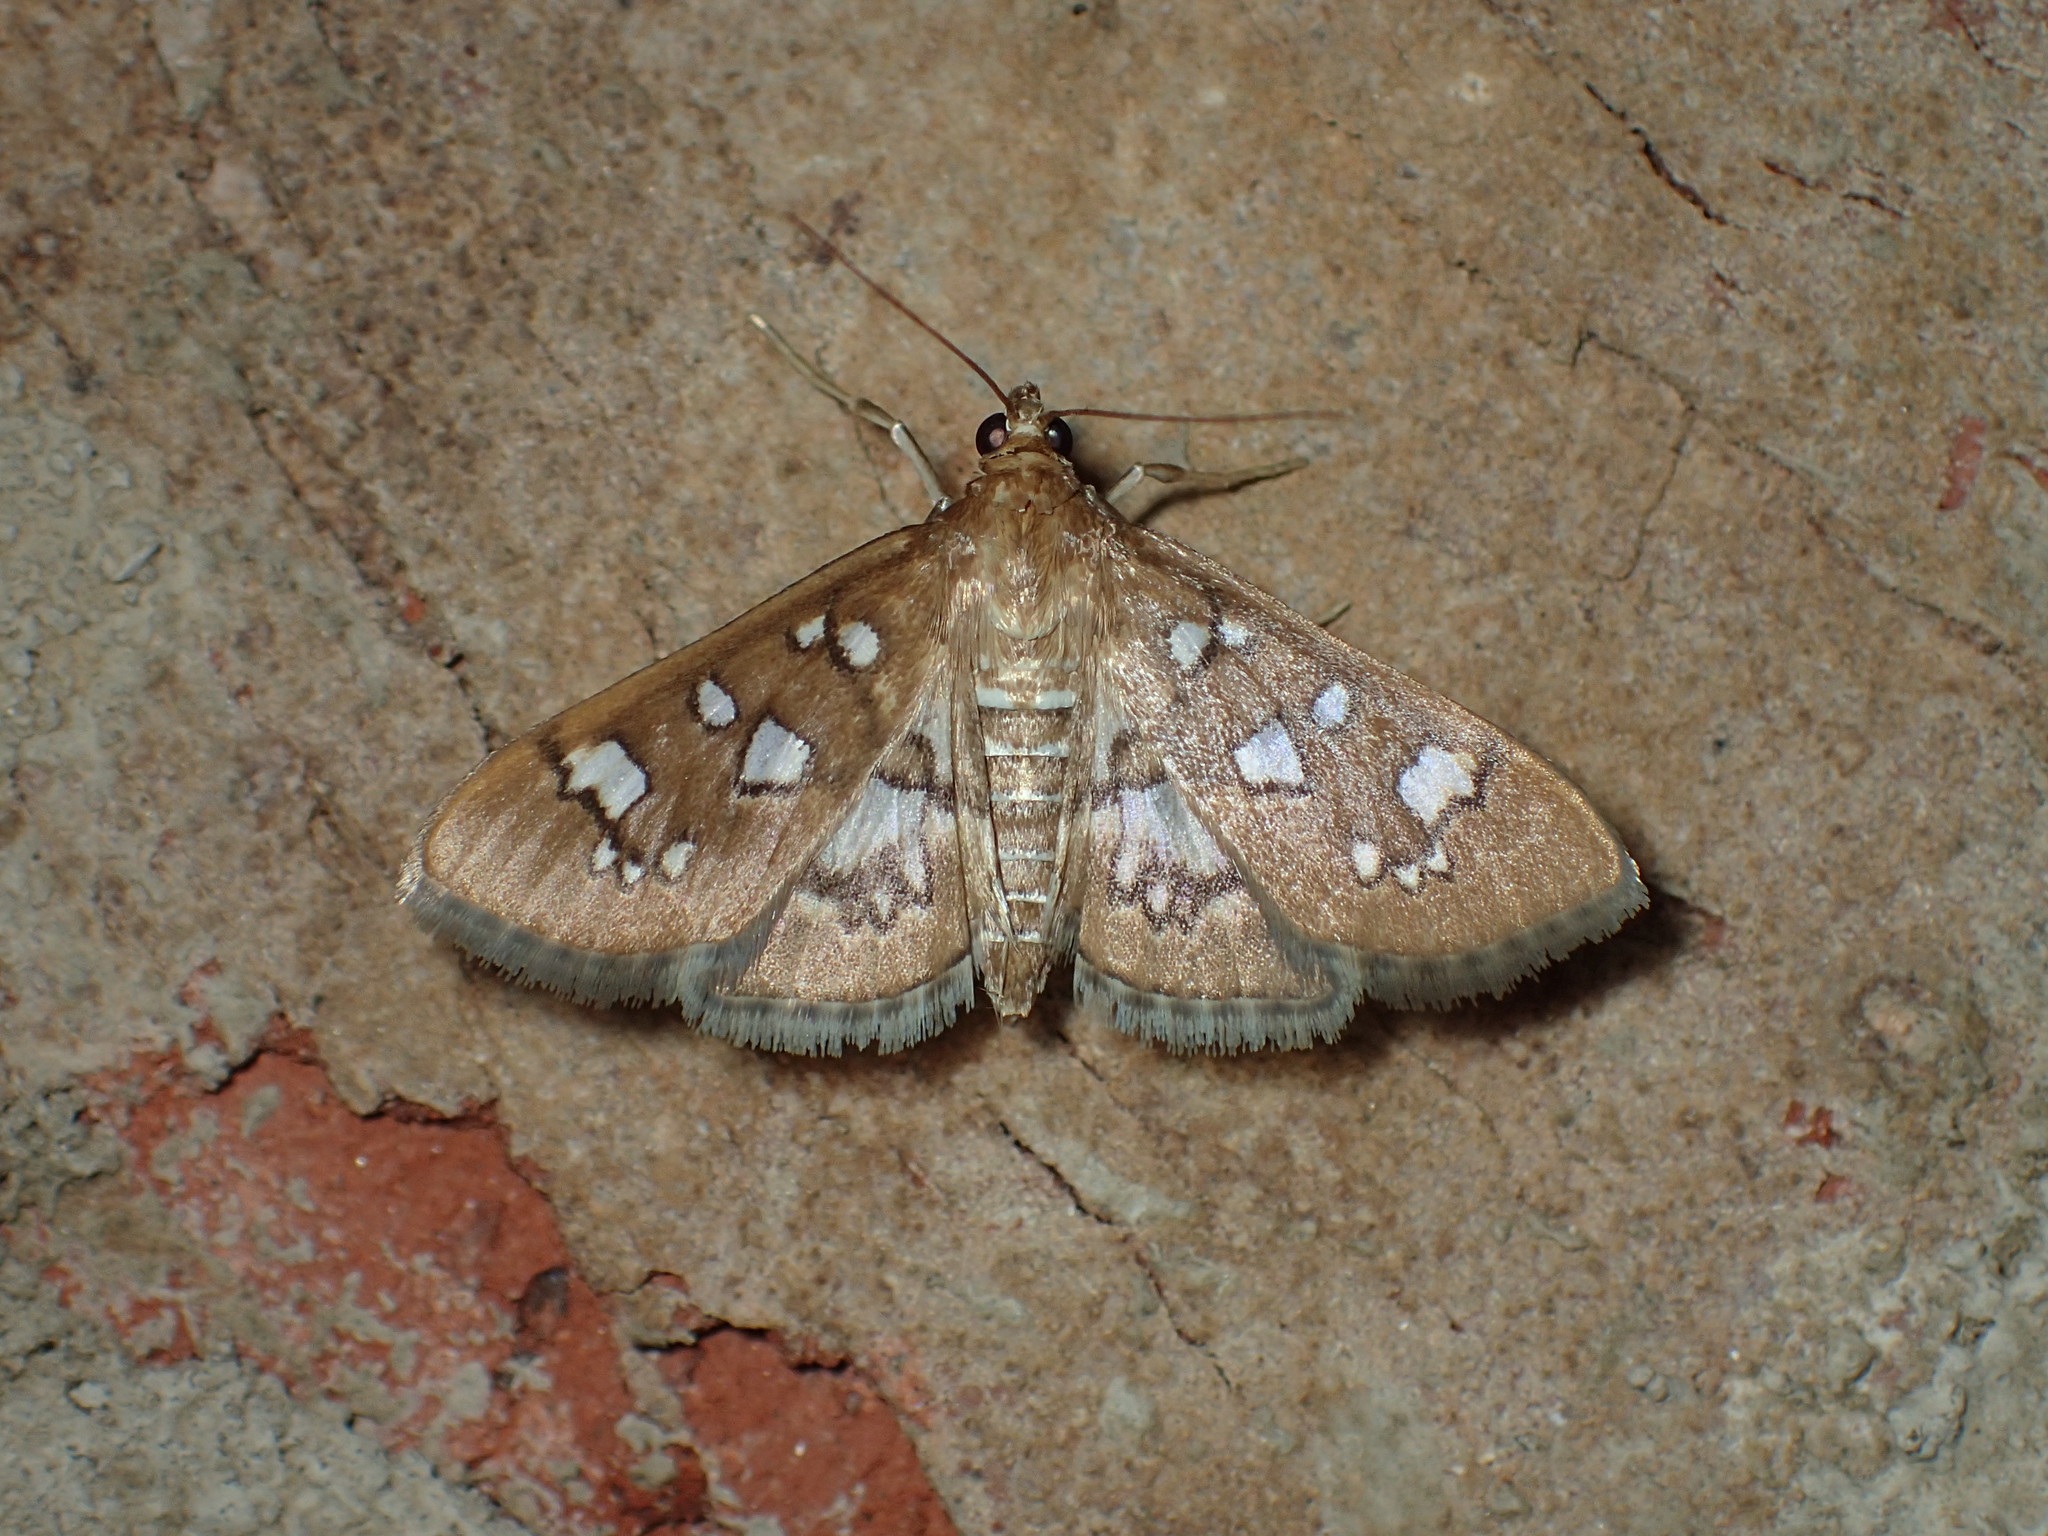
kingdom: Animalia
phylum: Arthropoda
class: Insecta
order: Lepidoptera
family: Crambidae
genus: Samea
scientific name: Samea baccatalis
